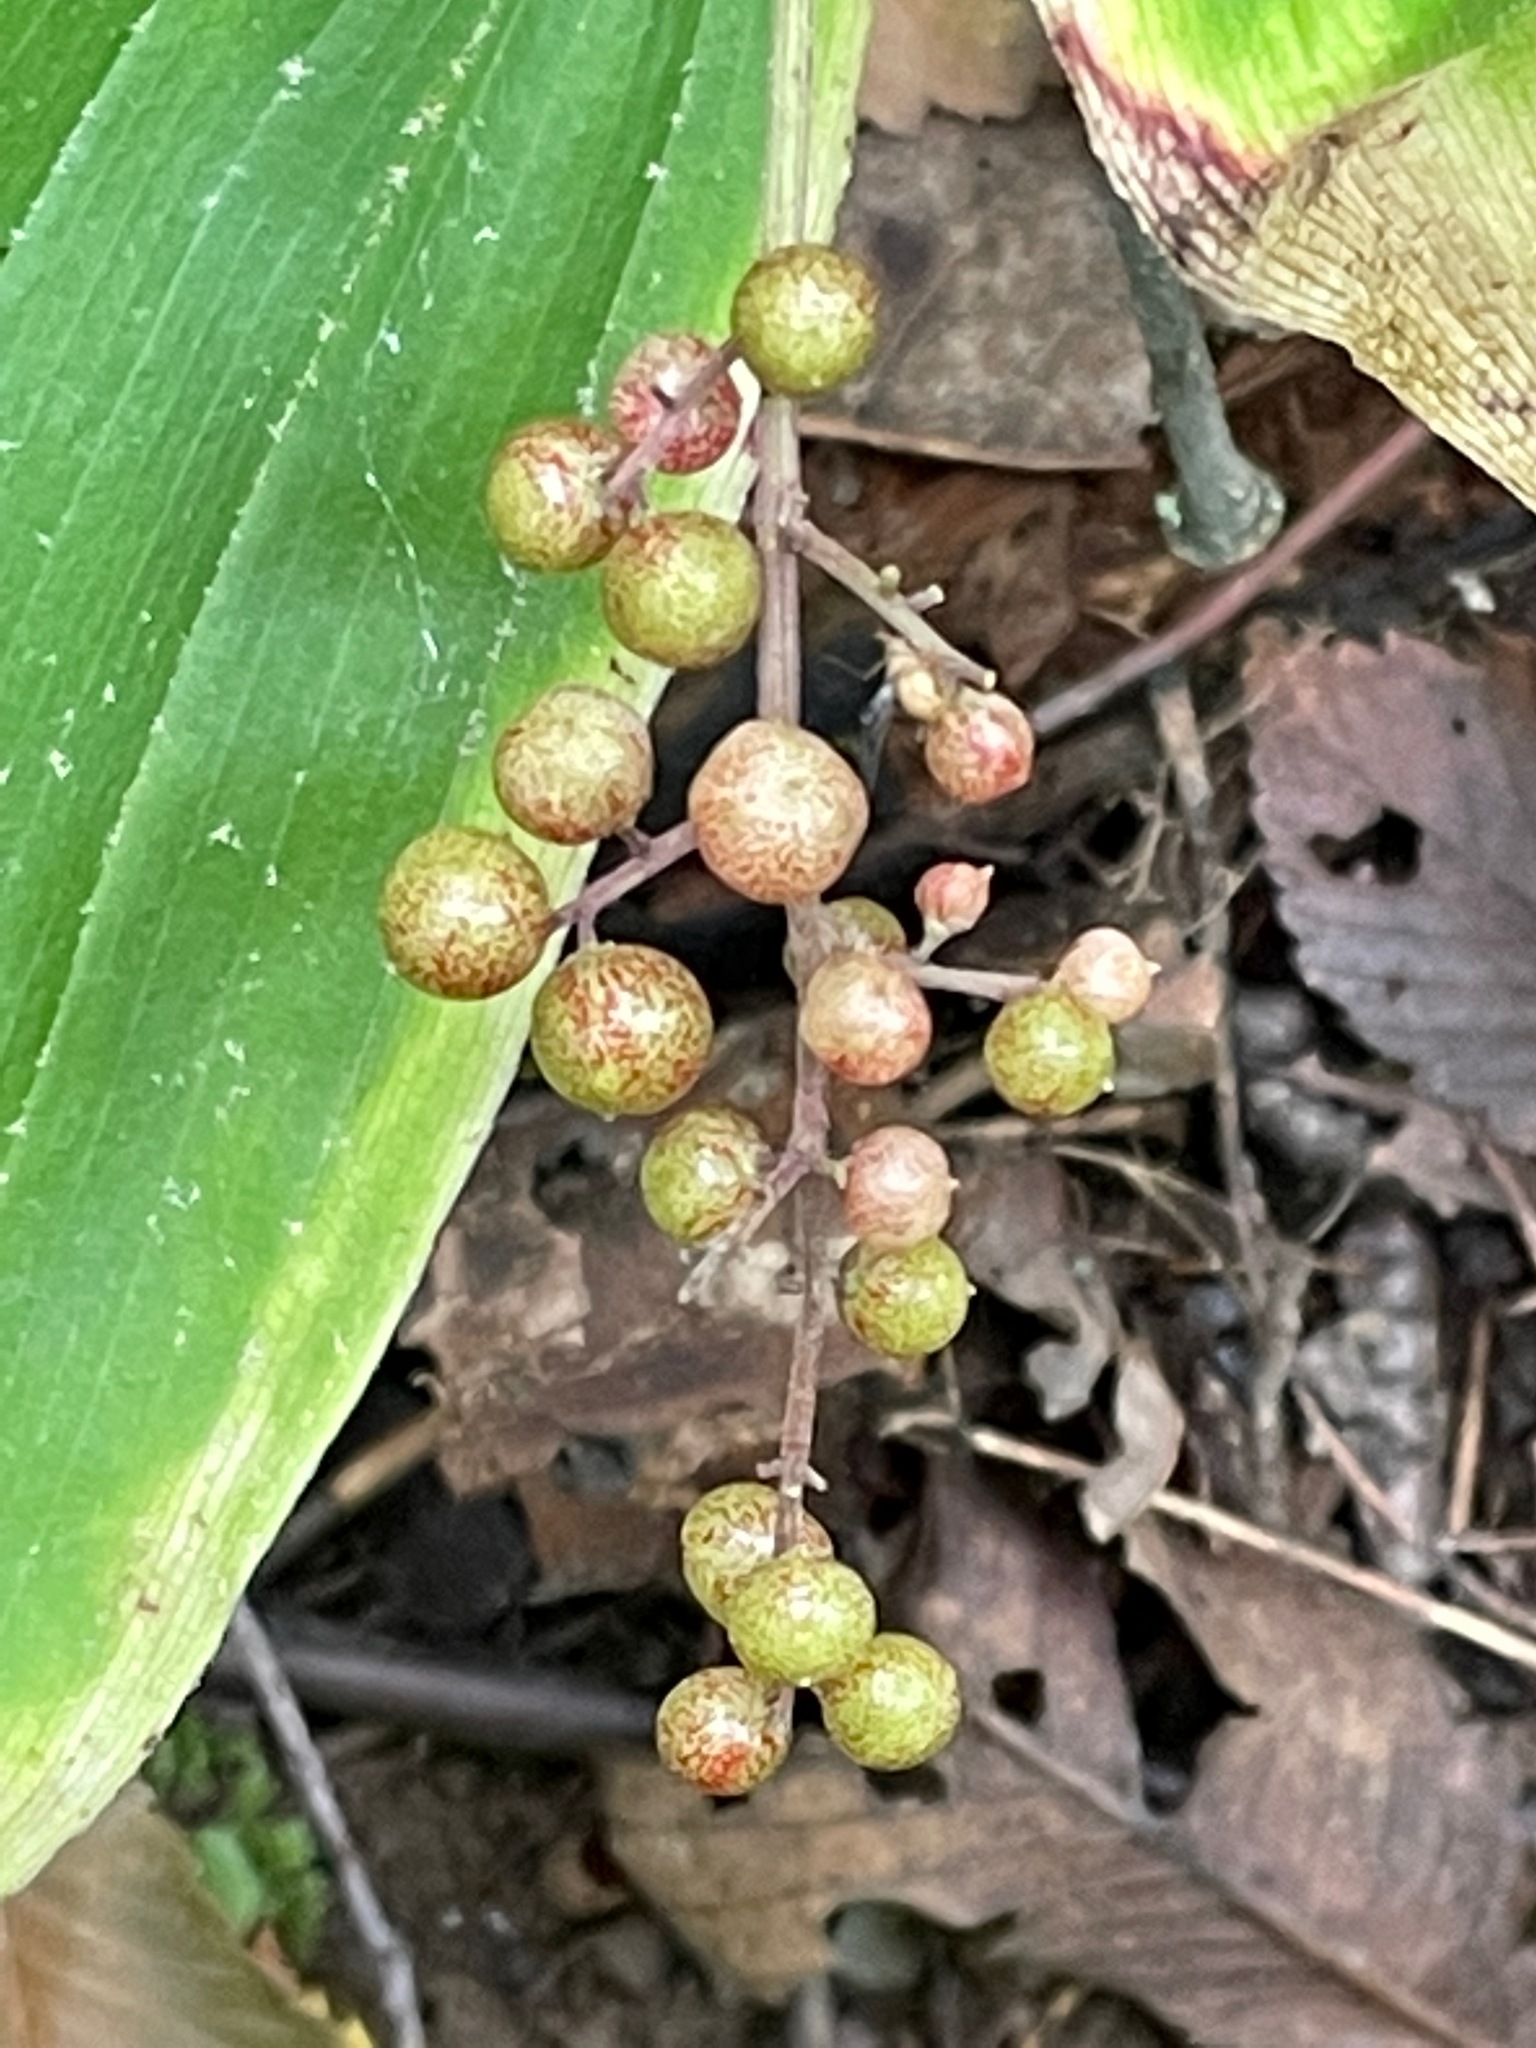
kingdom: Plantae
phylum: Tracheophyta
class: Liliopsida
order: Asparagales
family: Asparagaceae
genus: Maianthemum
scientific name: Maianthemum racemosum
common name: False spikenard
